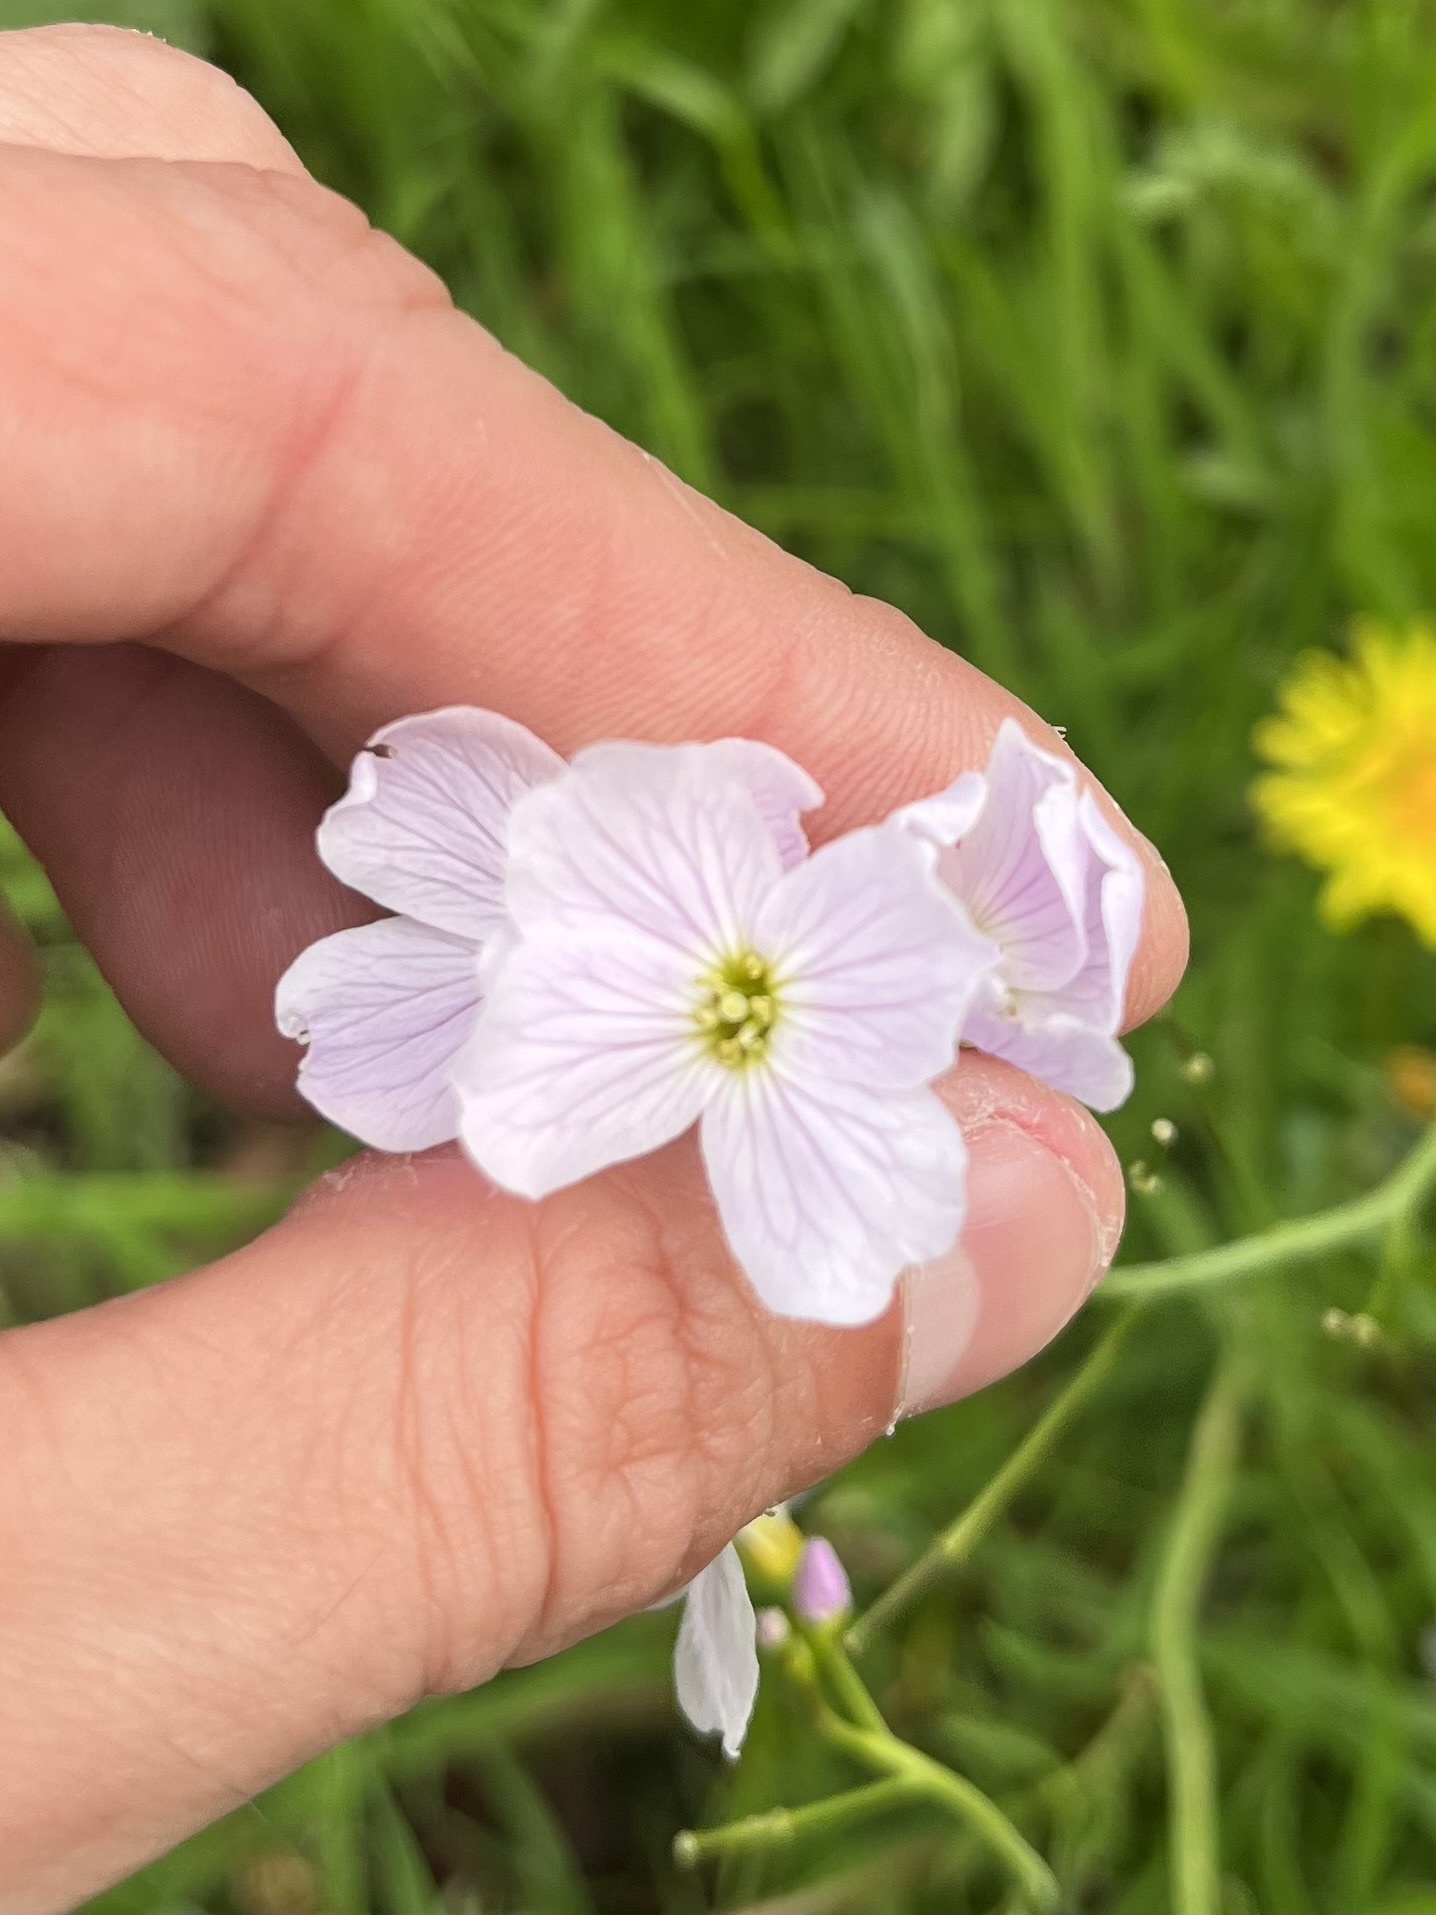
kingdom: Plantae
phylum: Tracheophyta
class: Magnoliopsida
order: Brassicales
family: Brassicaceae
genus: Cardamine
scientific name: Cardamine pratensis
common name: Cuckoo flower
